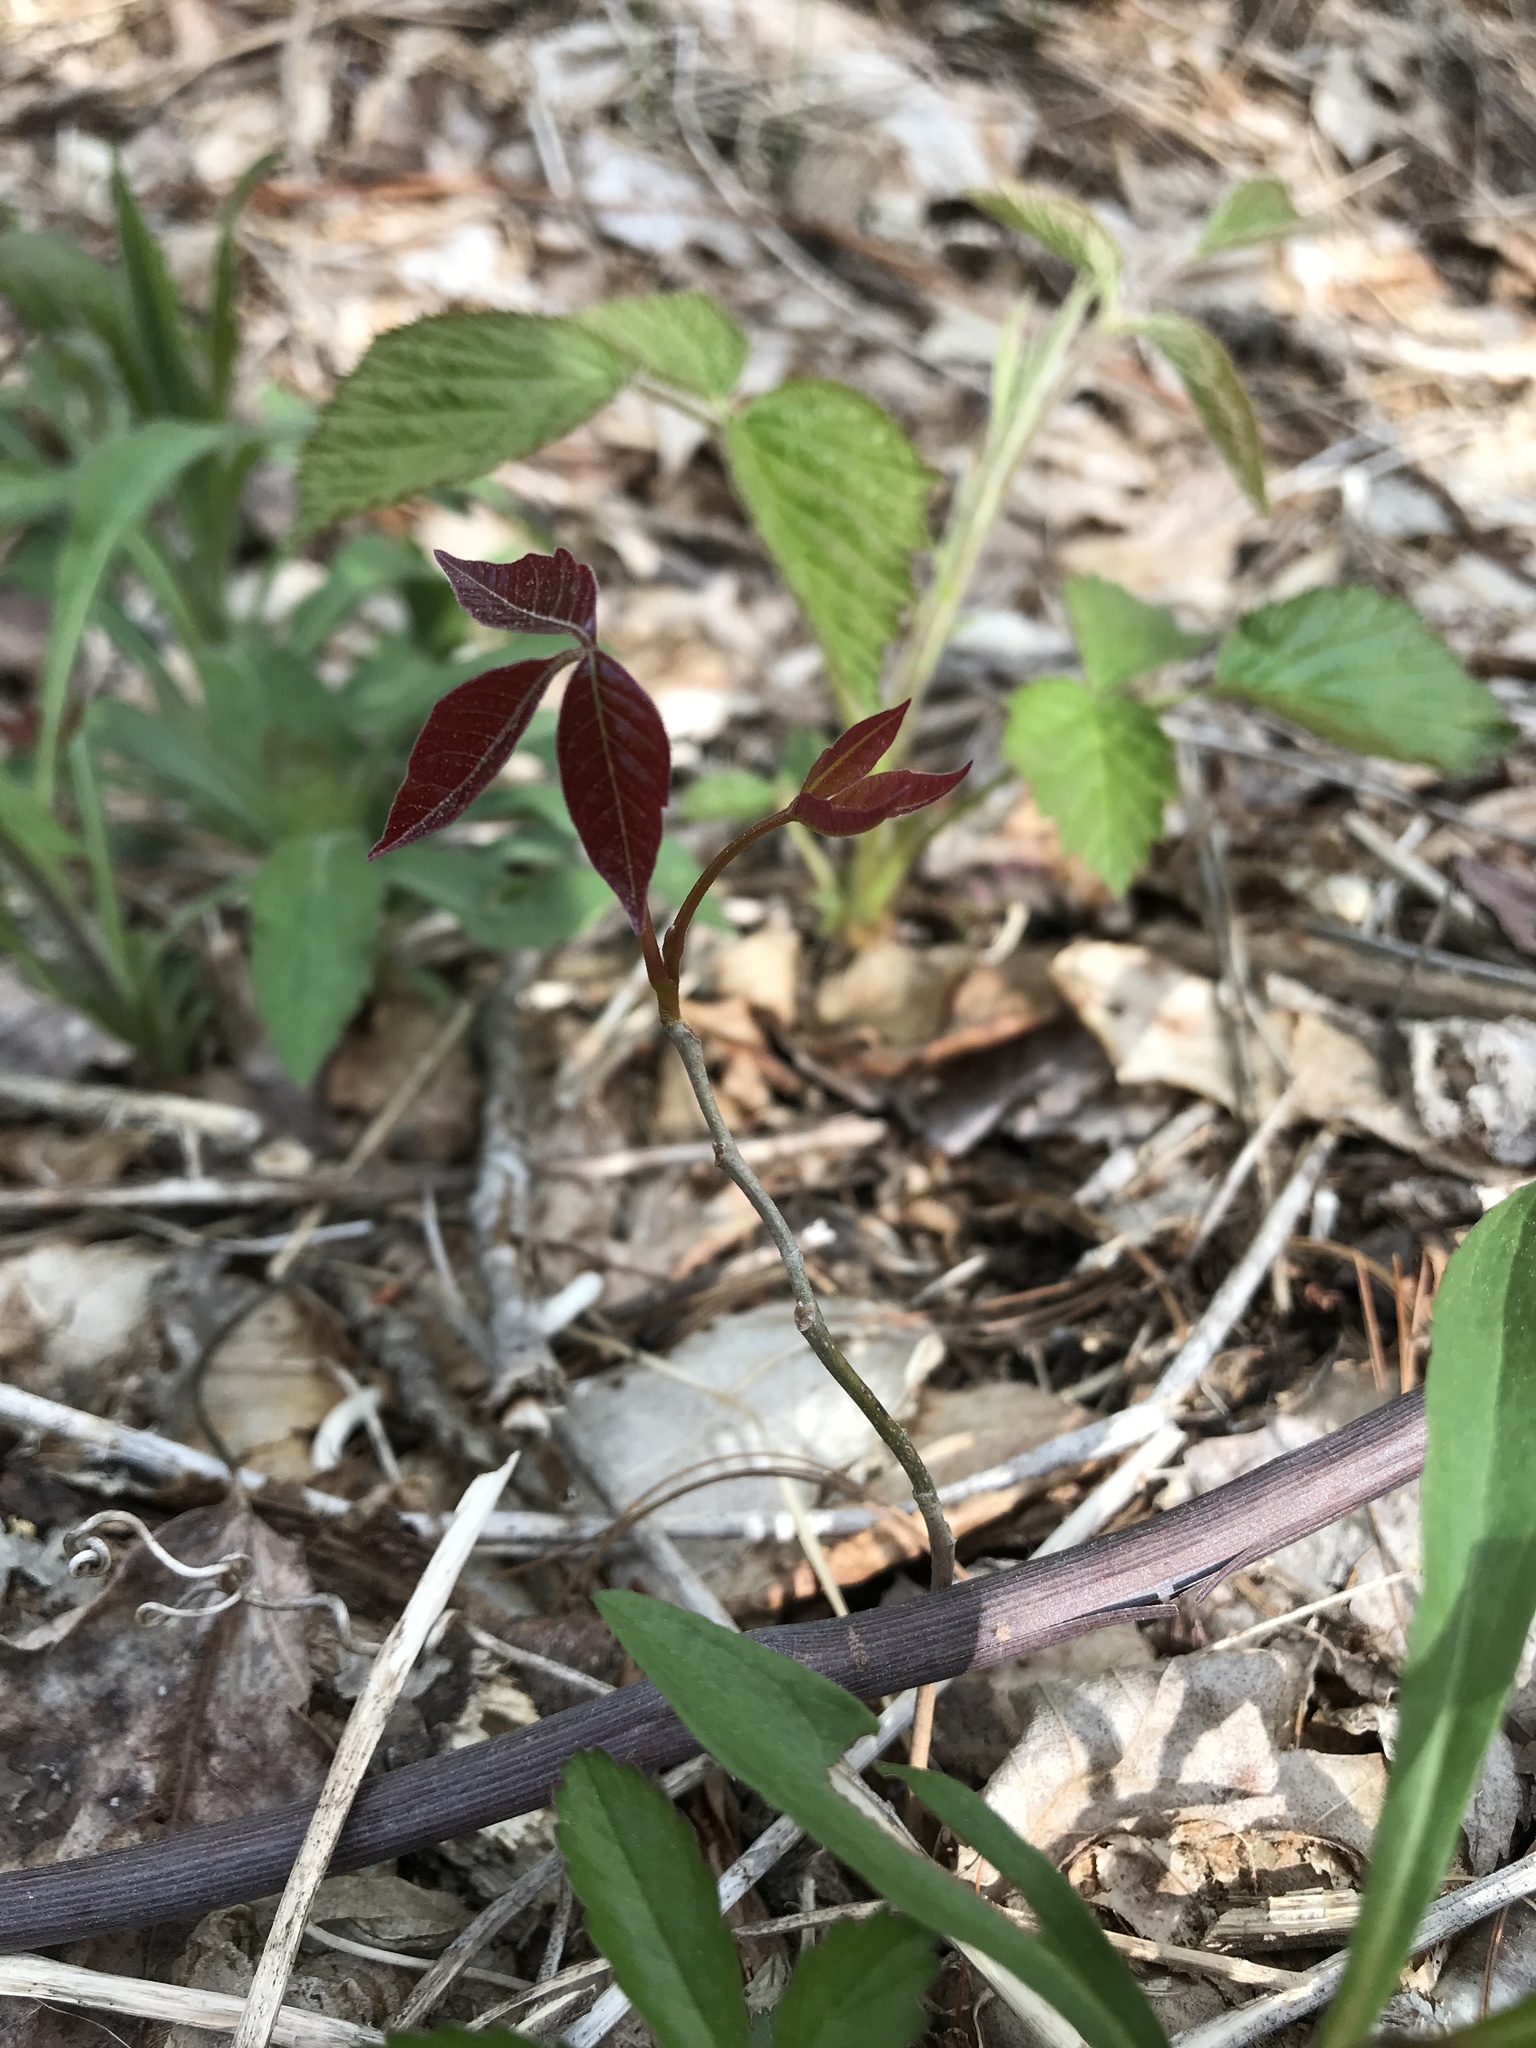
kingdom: Plantae
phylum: Tracheophyta
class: Magnoliopsida
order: Sapindales
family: Anacardiaceae
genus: Toxicodendron
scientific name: Toxicodendron radicans
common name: Poison ivy
